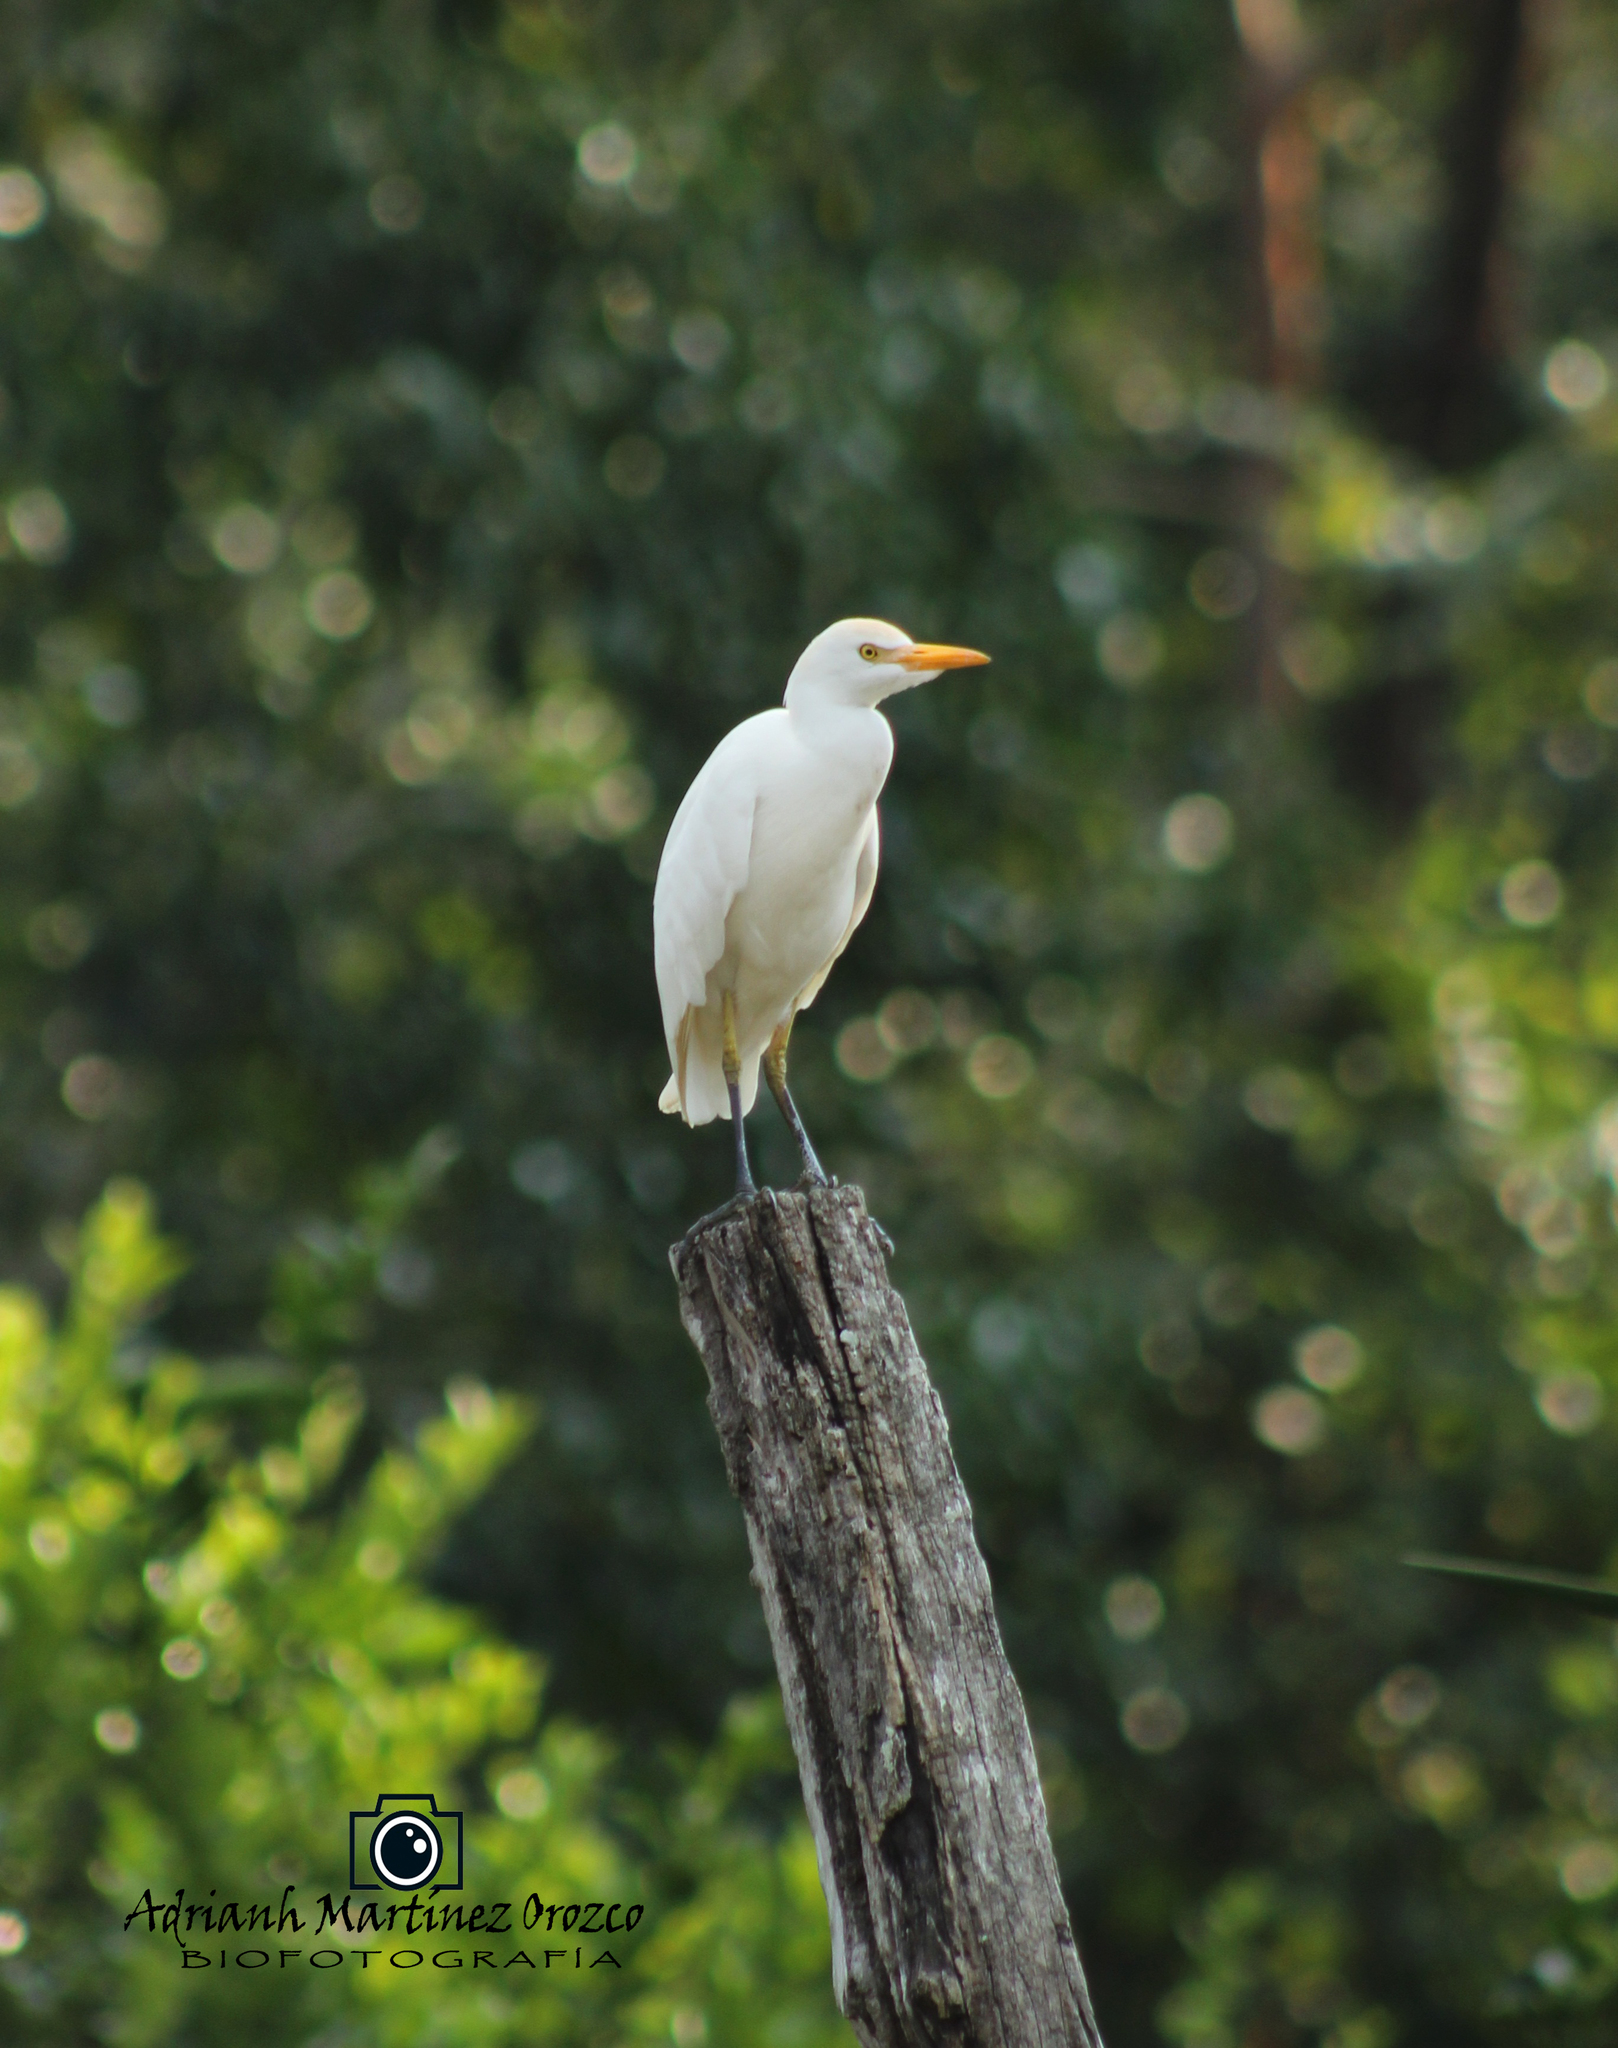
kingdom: Animalia
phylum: Chordata
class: Aves
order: Pelecaniformes
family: Ardeidae
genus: Bubulcus
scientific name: Bubulcus ibis
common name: Cattle egret
